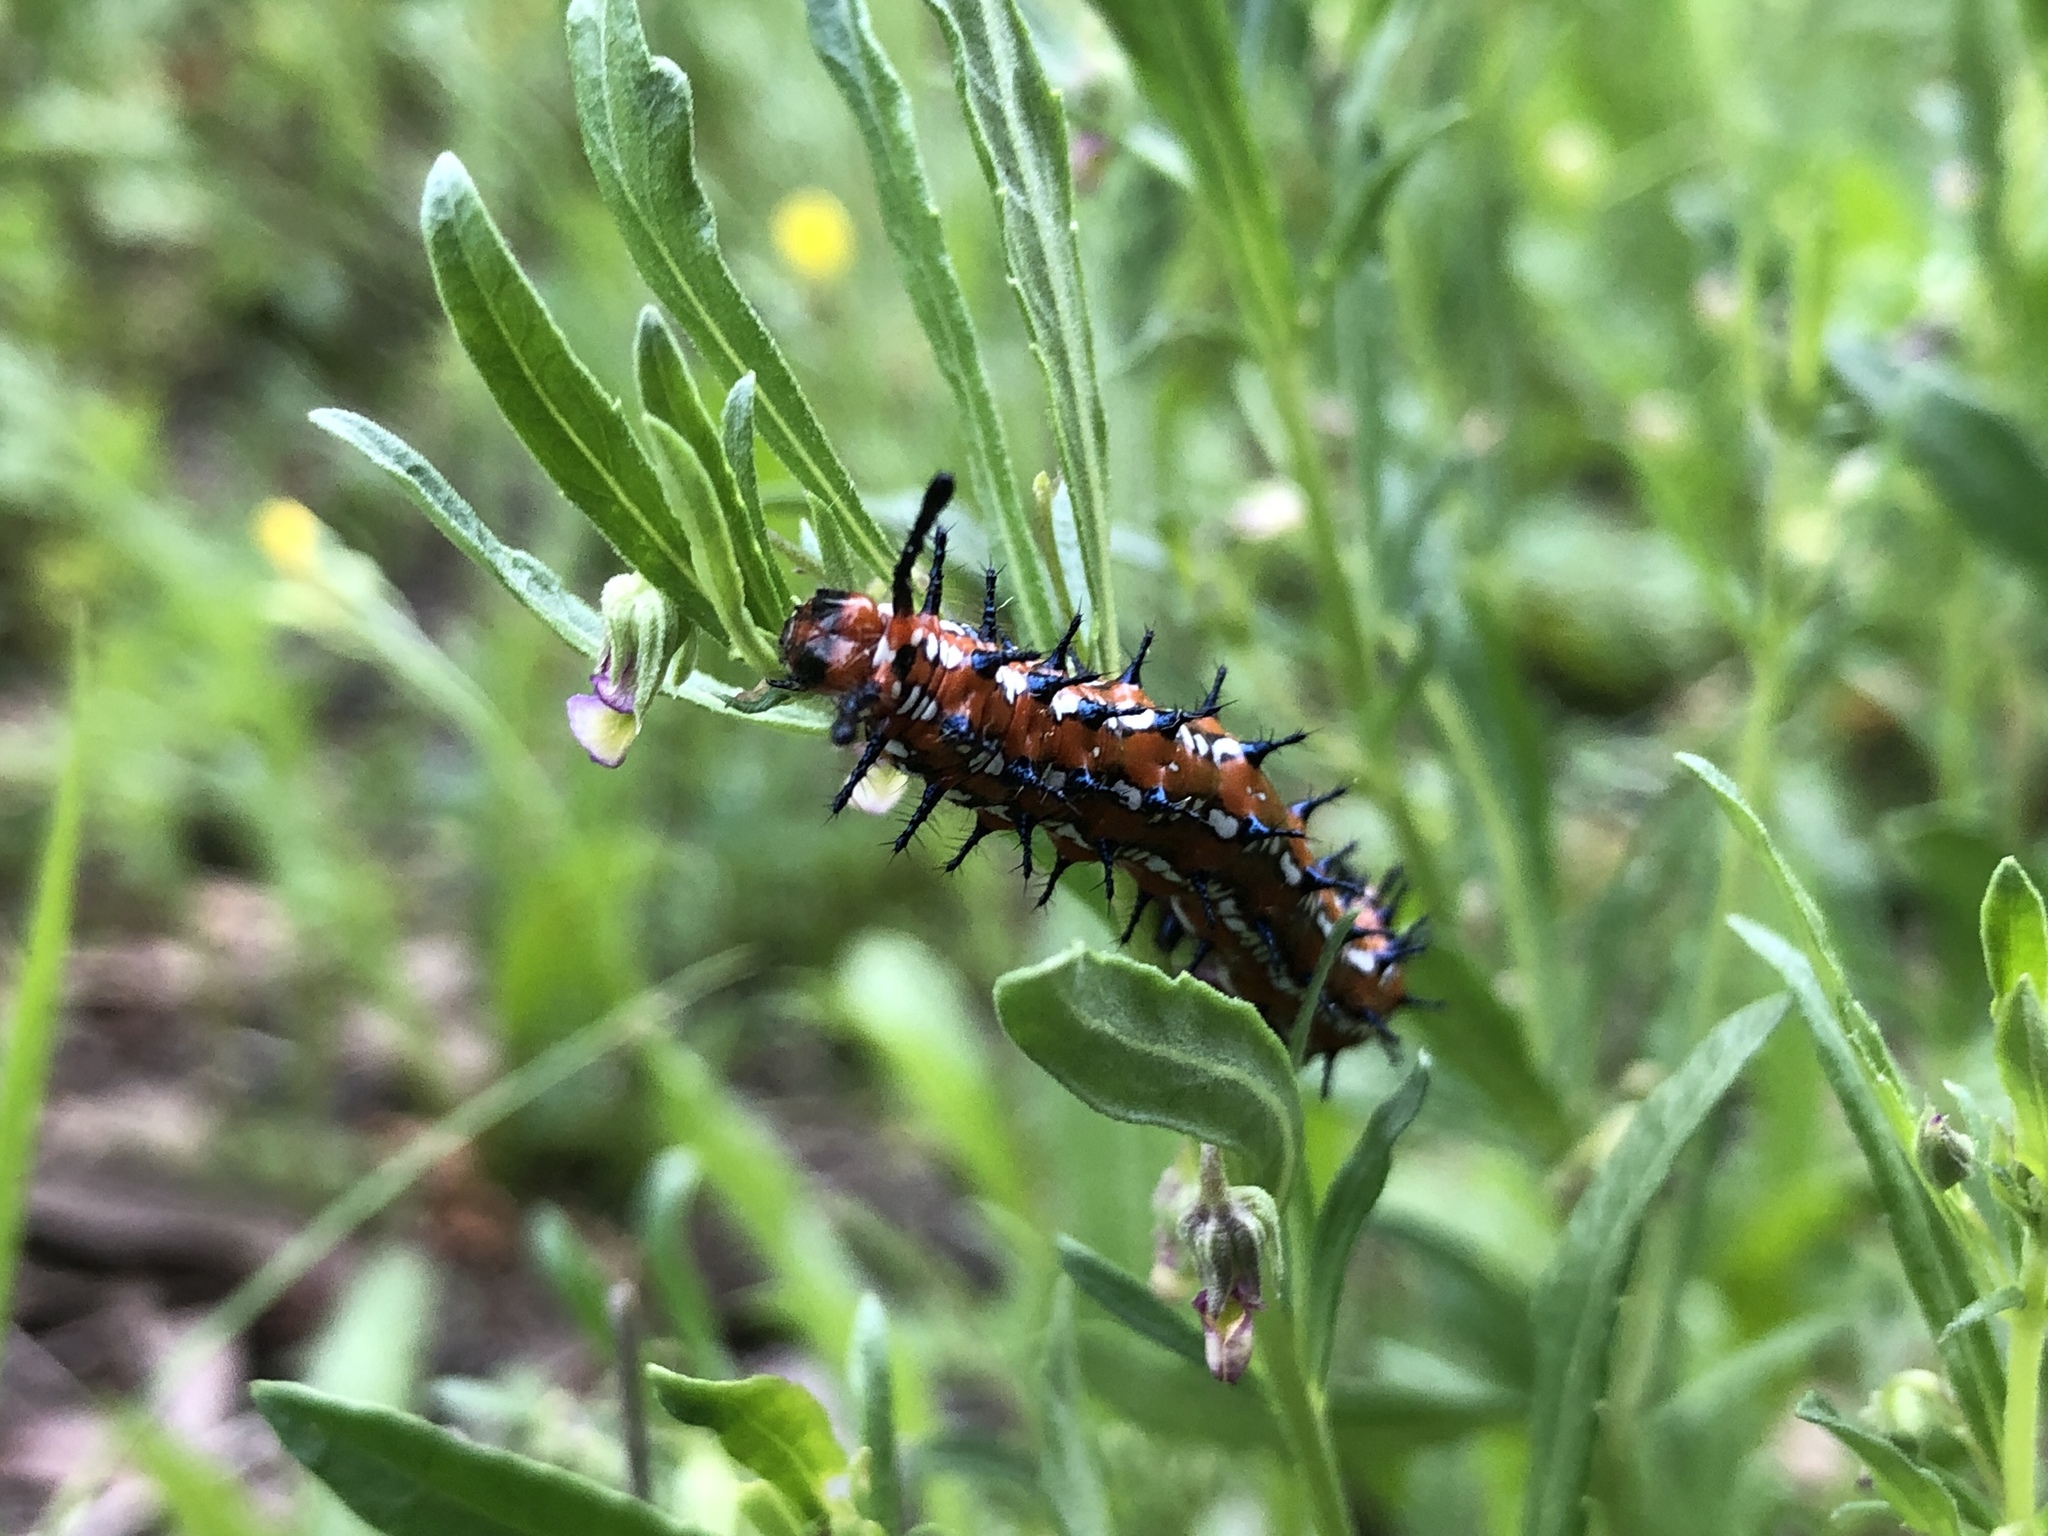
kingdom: Animalia
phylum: Arthropoda
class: Insecta
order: Lepidoptera
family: Nymphalidae
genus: Euptoieta
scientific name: Euptoieta claudia
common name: Variegated fritillary
